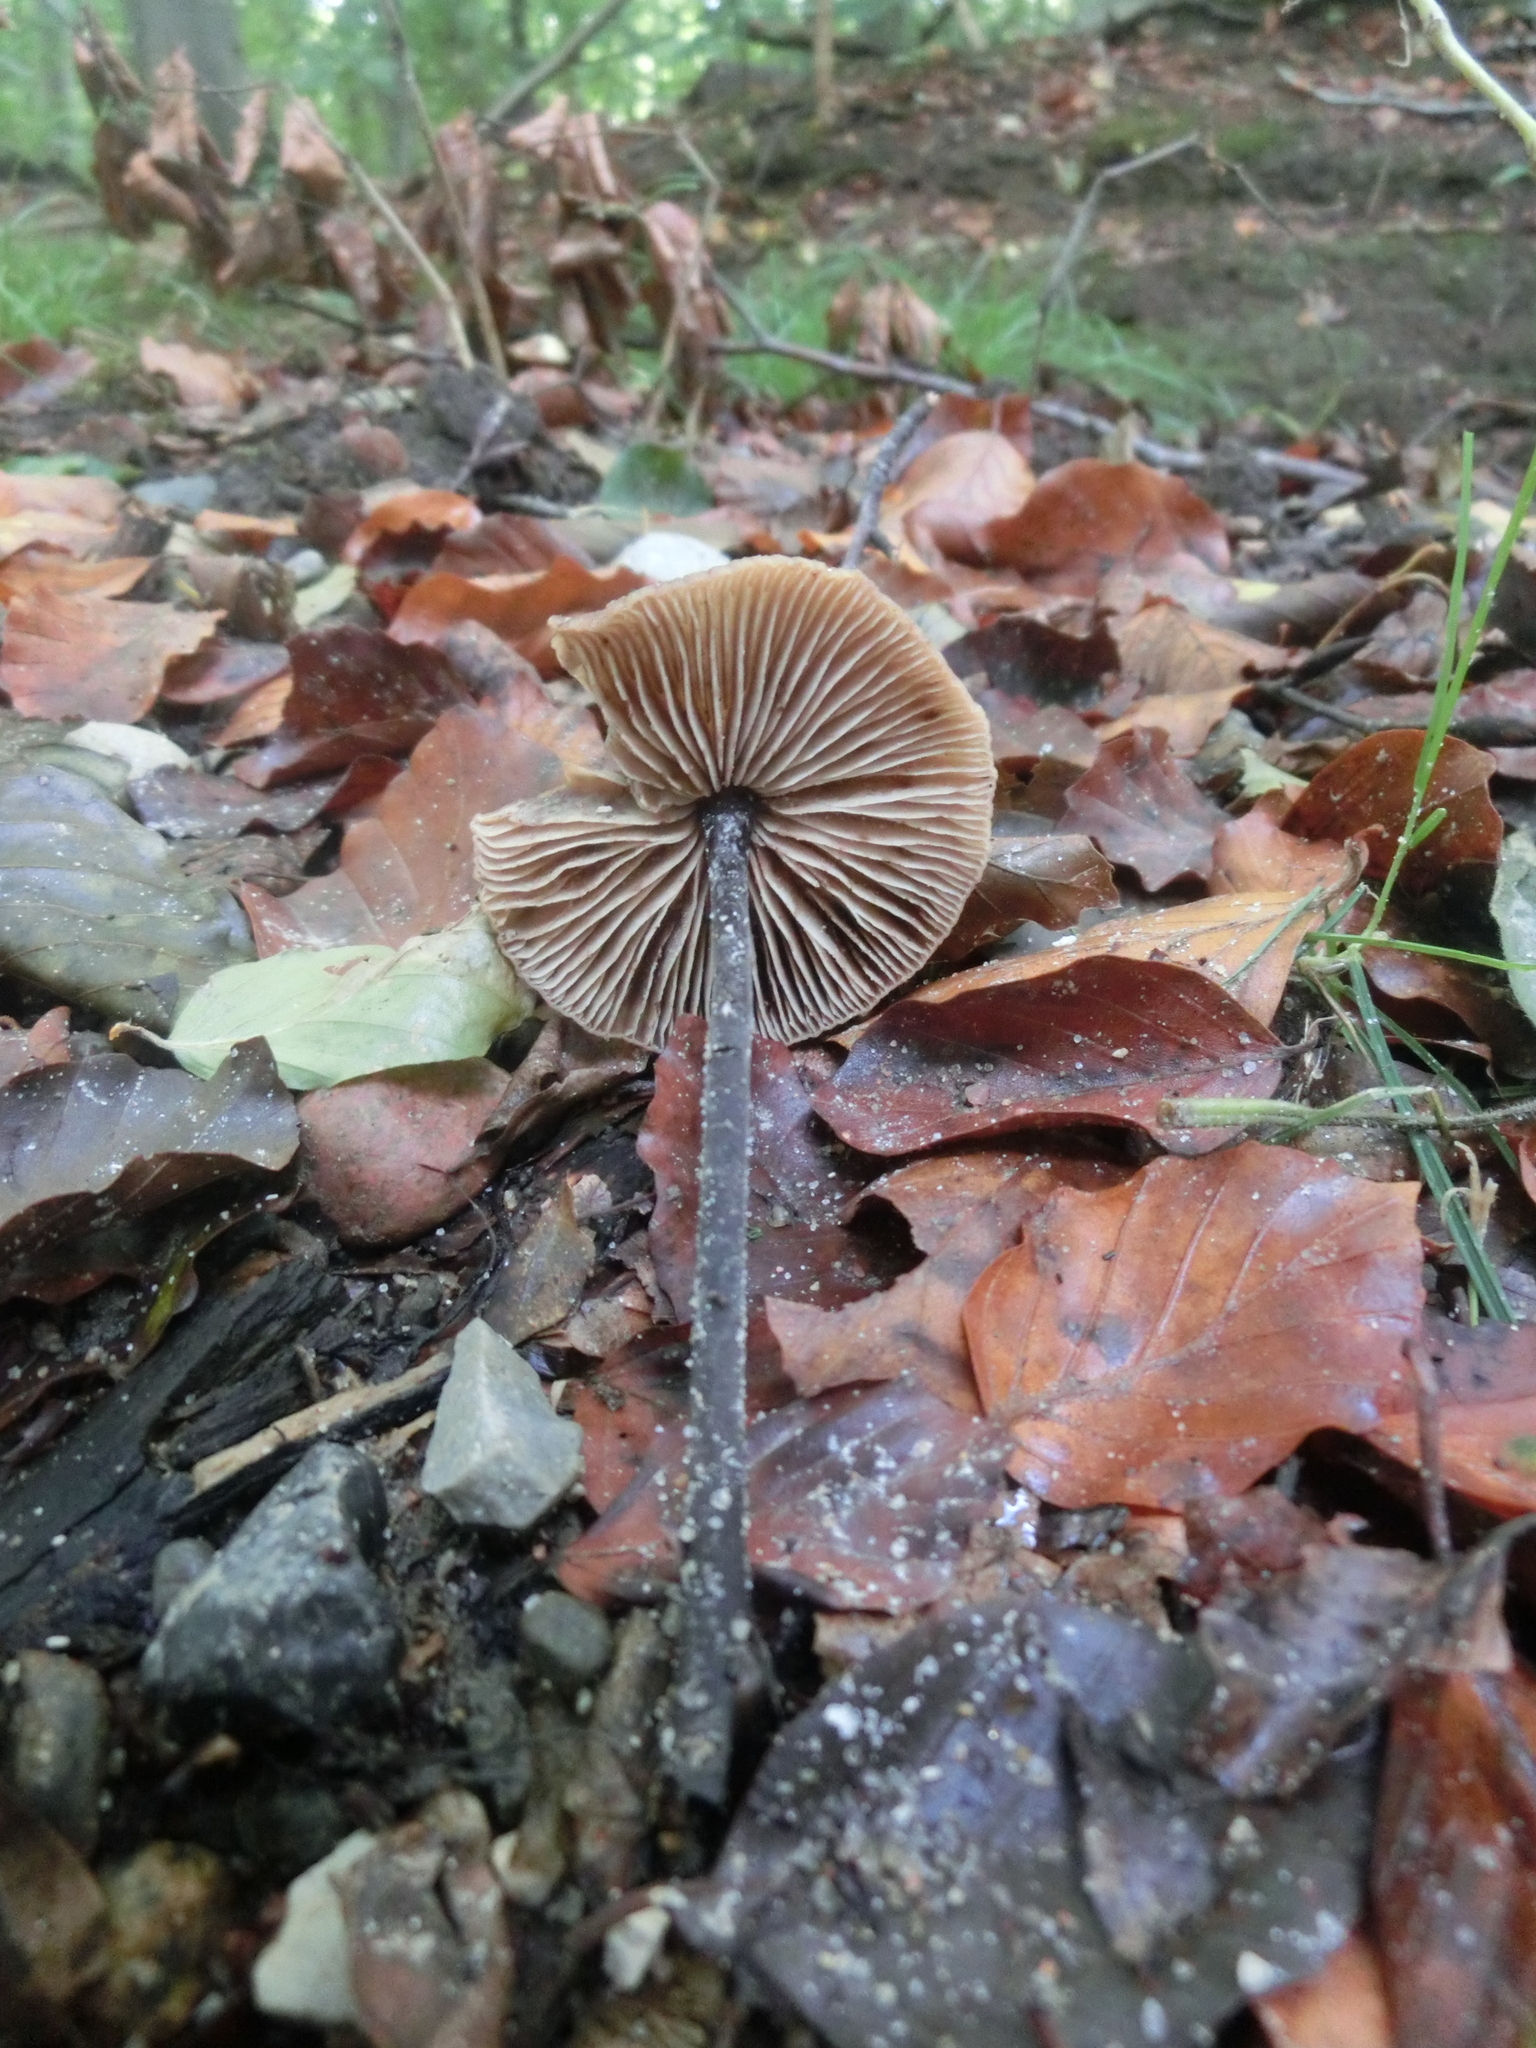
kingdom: Fungi
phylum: Basidiomycota
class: Agaricomycetes
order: Agaricales
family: Omphalotaceae
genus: Mycetinis
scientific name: Mycetinis alliaceus
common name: Garlic parachute
